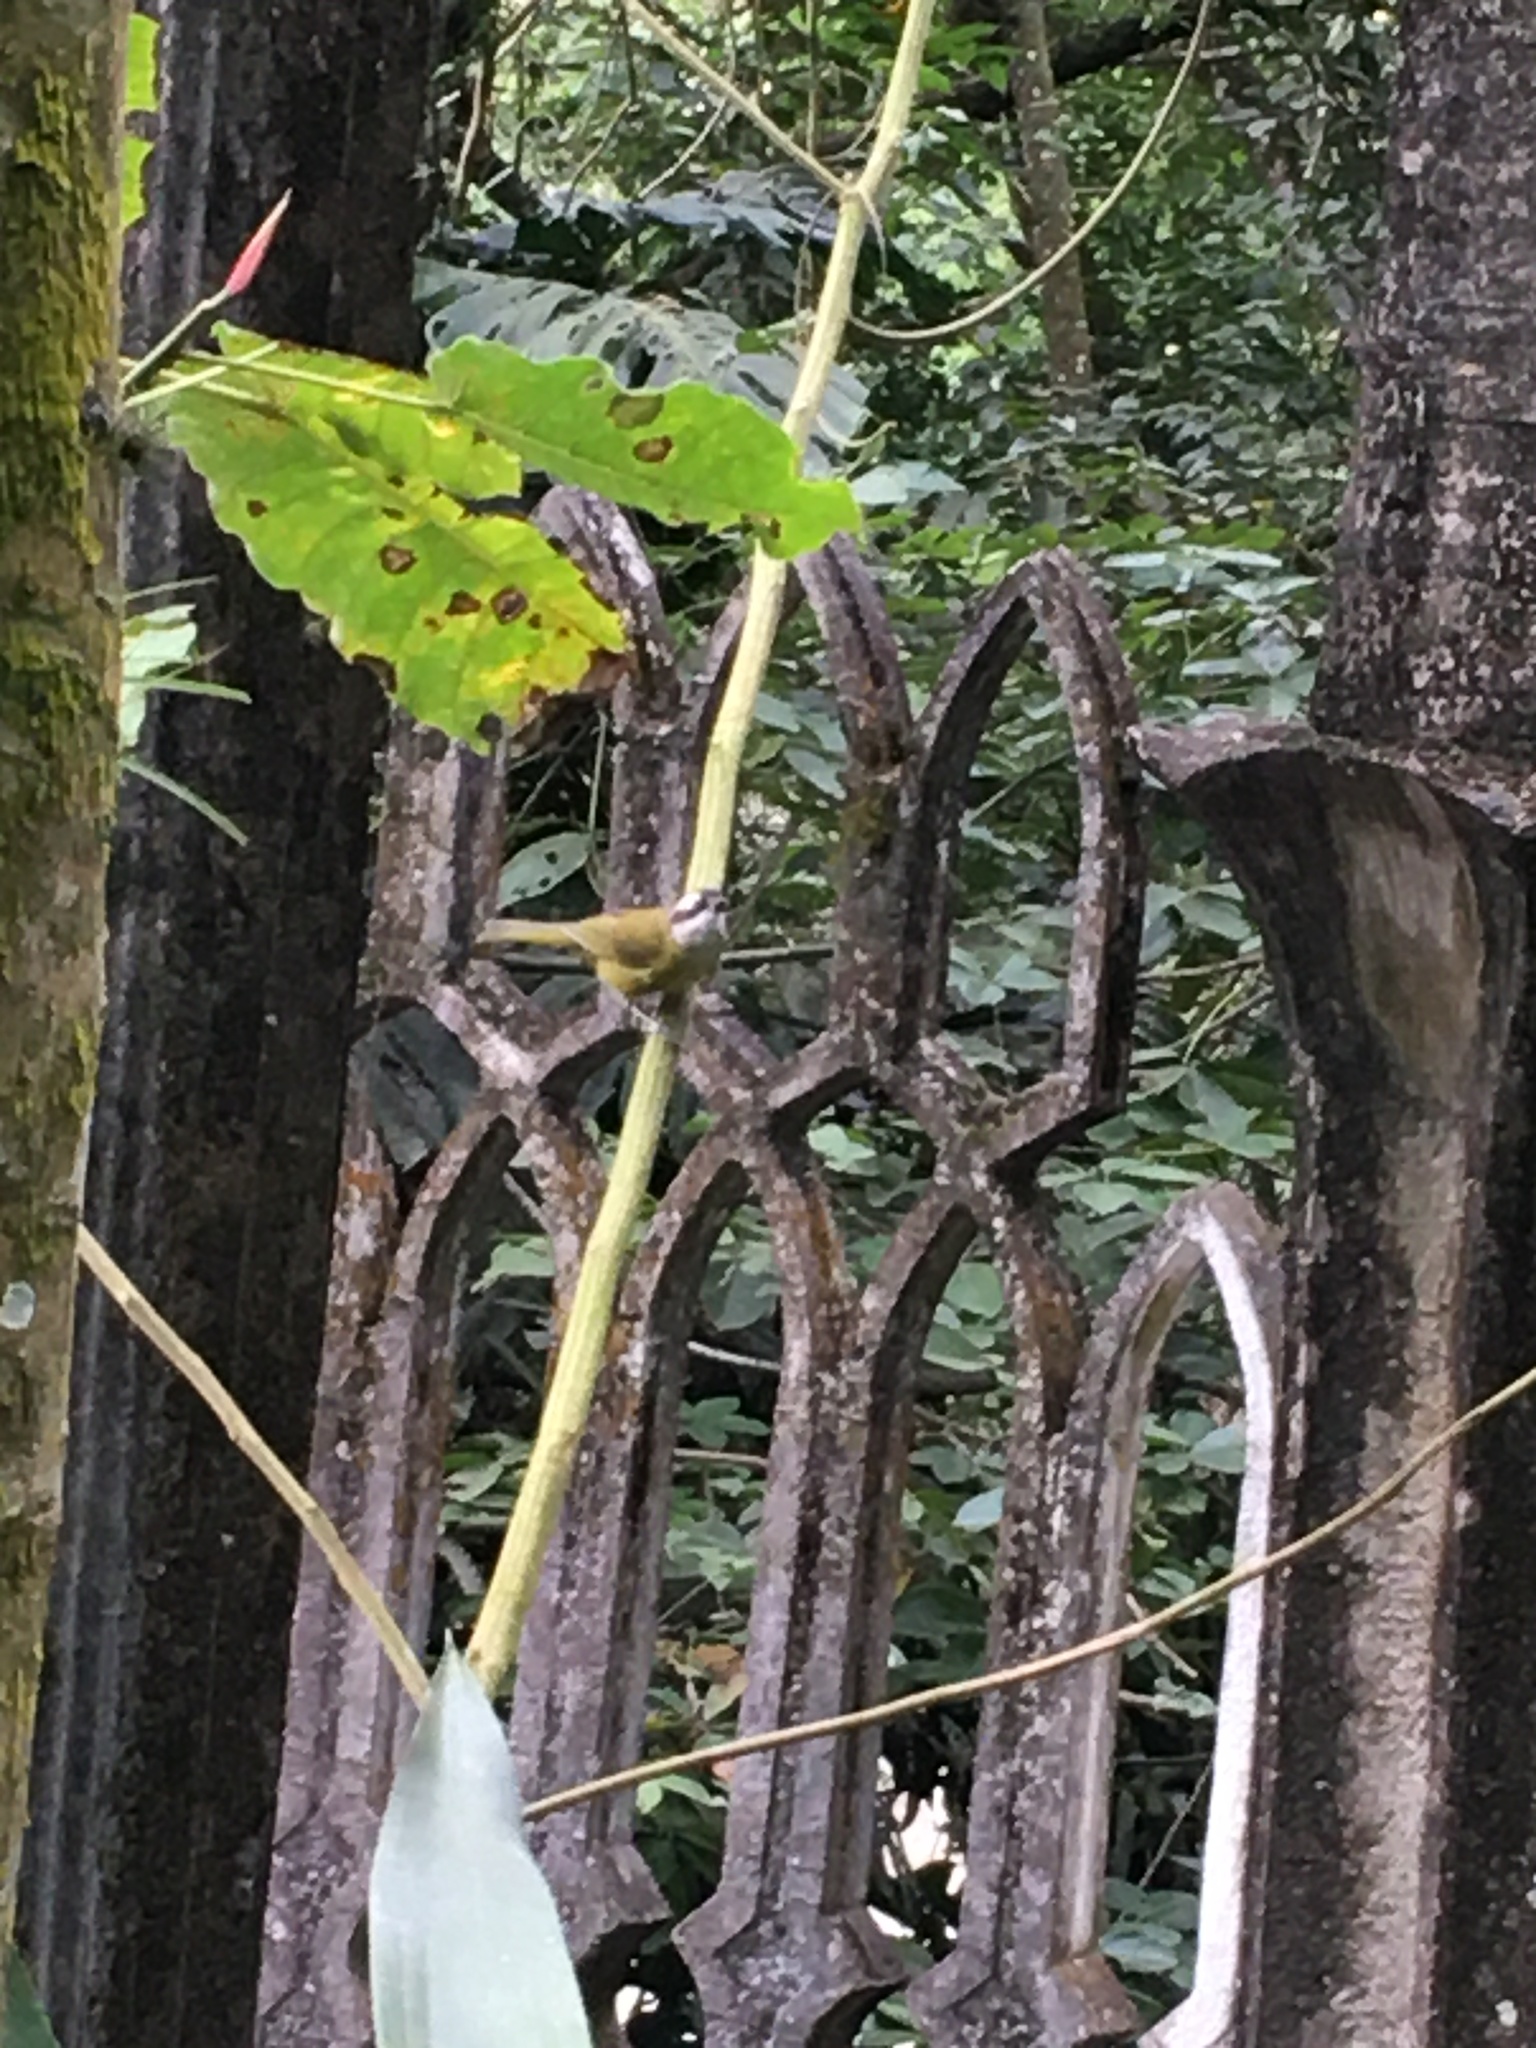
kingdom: Animalia
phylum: Chordata
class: Aves
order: Passeriformes
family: Passerellidae
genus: Chlorospingus
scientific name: Chlorospingus flavopectus
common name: Common chlorospingus
